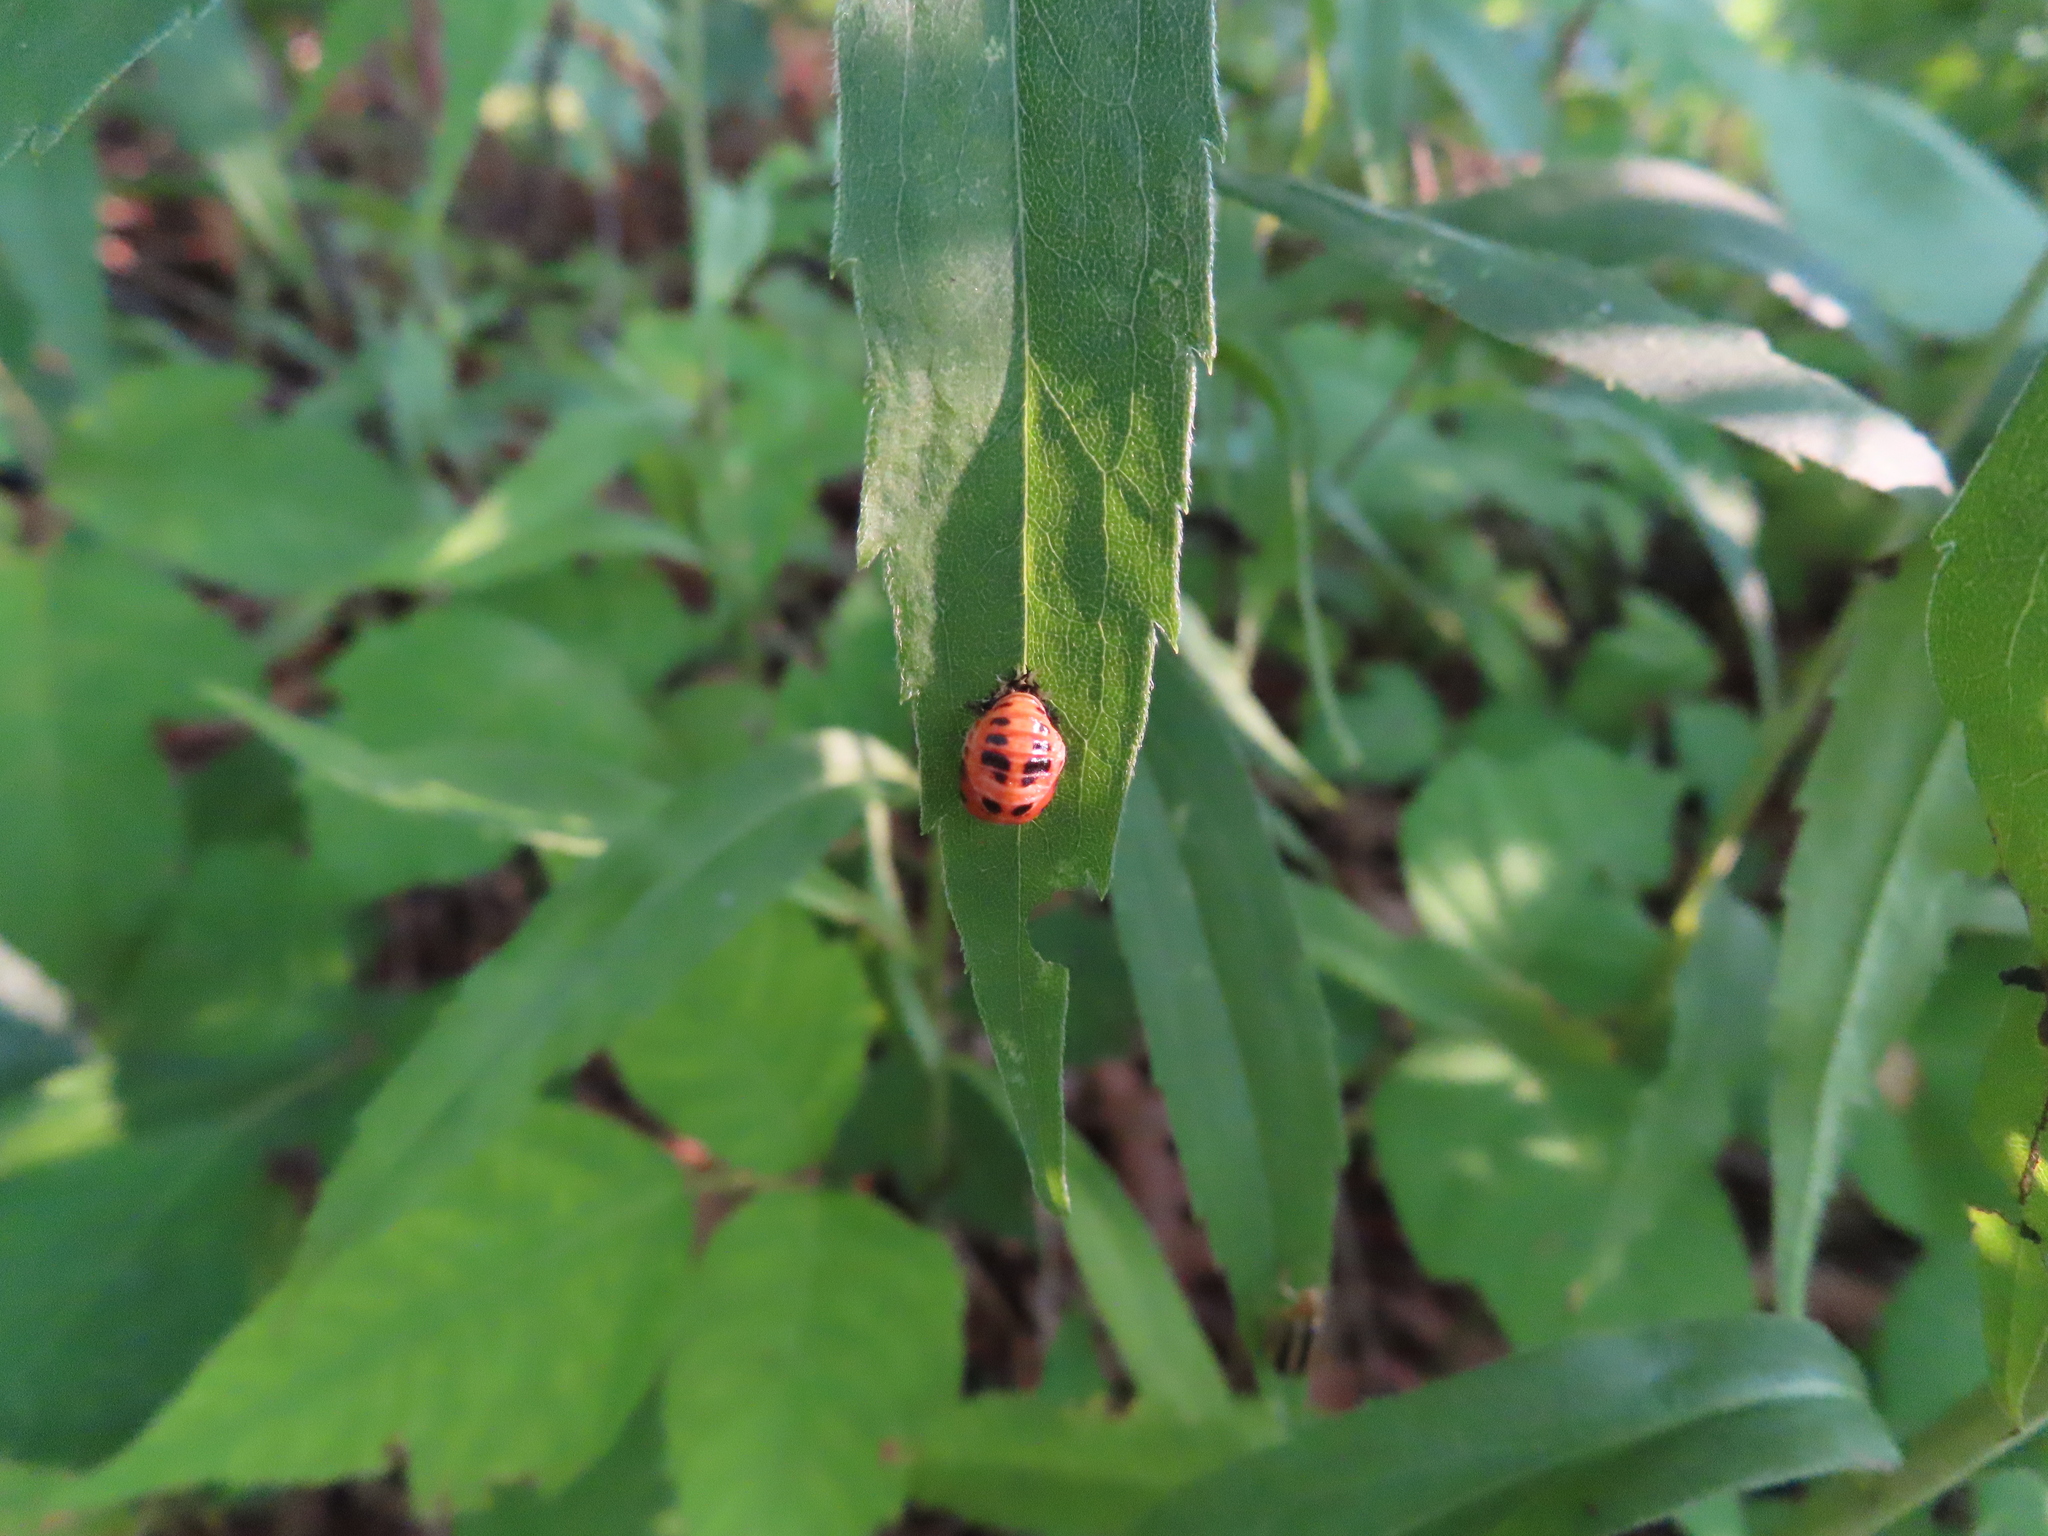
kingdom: Animalia
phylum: Arthropoda
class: Insecta
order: Coleoptera
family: Coccinellidae
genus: Harmonia
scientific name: Harmonia axyridis
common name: Harlequin ladybird
